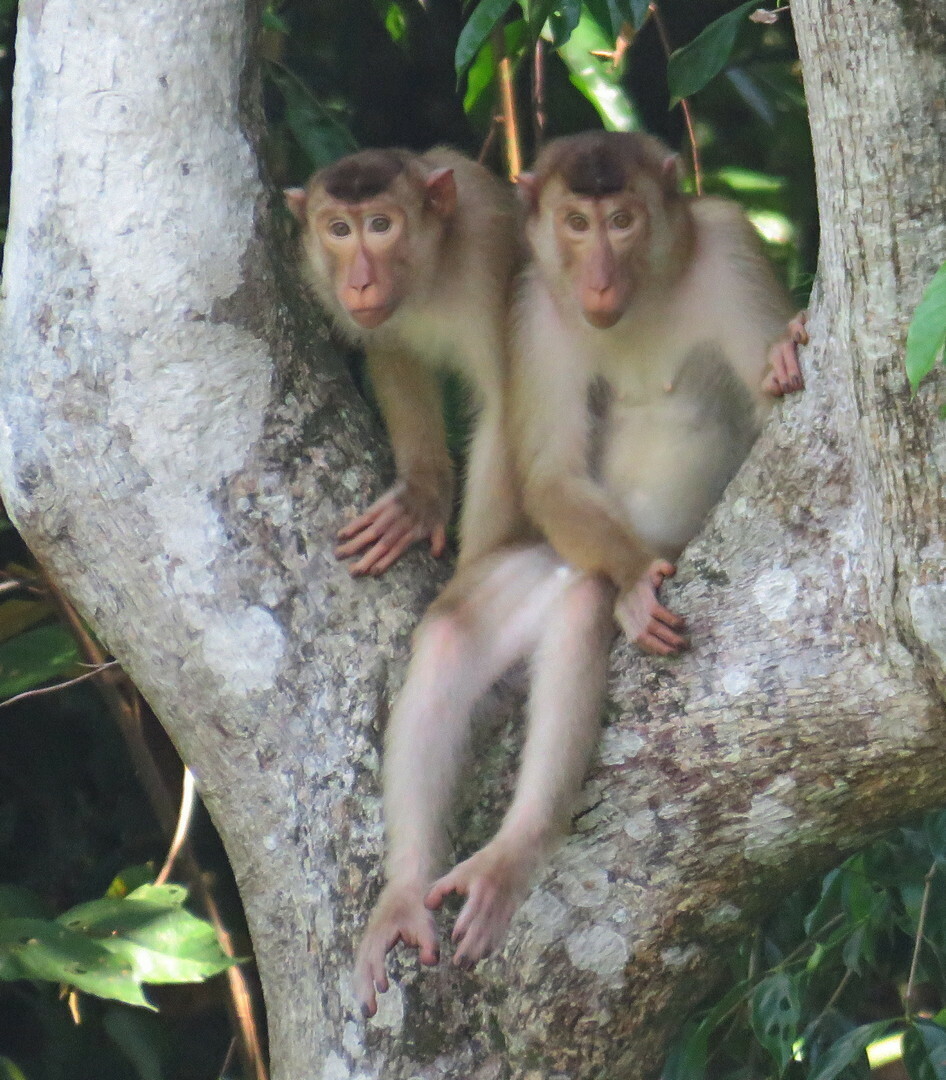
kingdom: Animalia
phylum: Chordata
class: Mammalia
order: Primates
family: Cercopithecidae
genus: Macaca
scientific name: Macaca nemestrina
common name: Southern pig-tailed macaque
